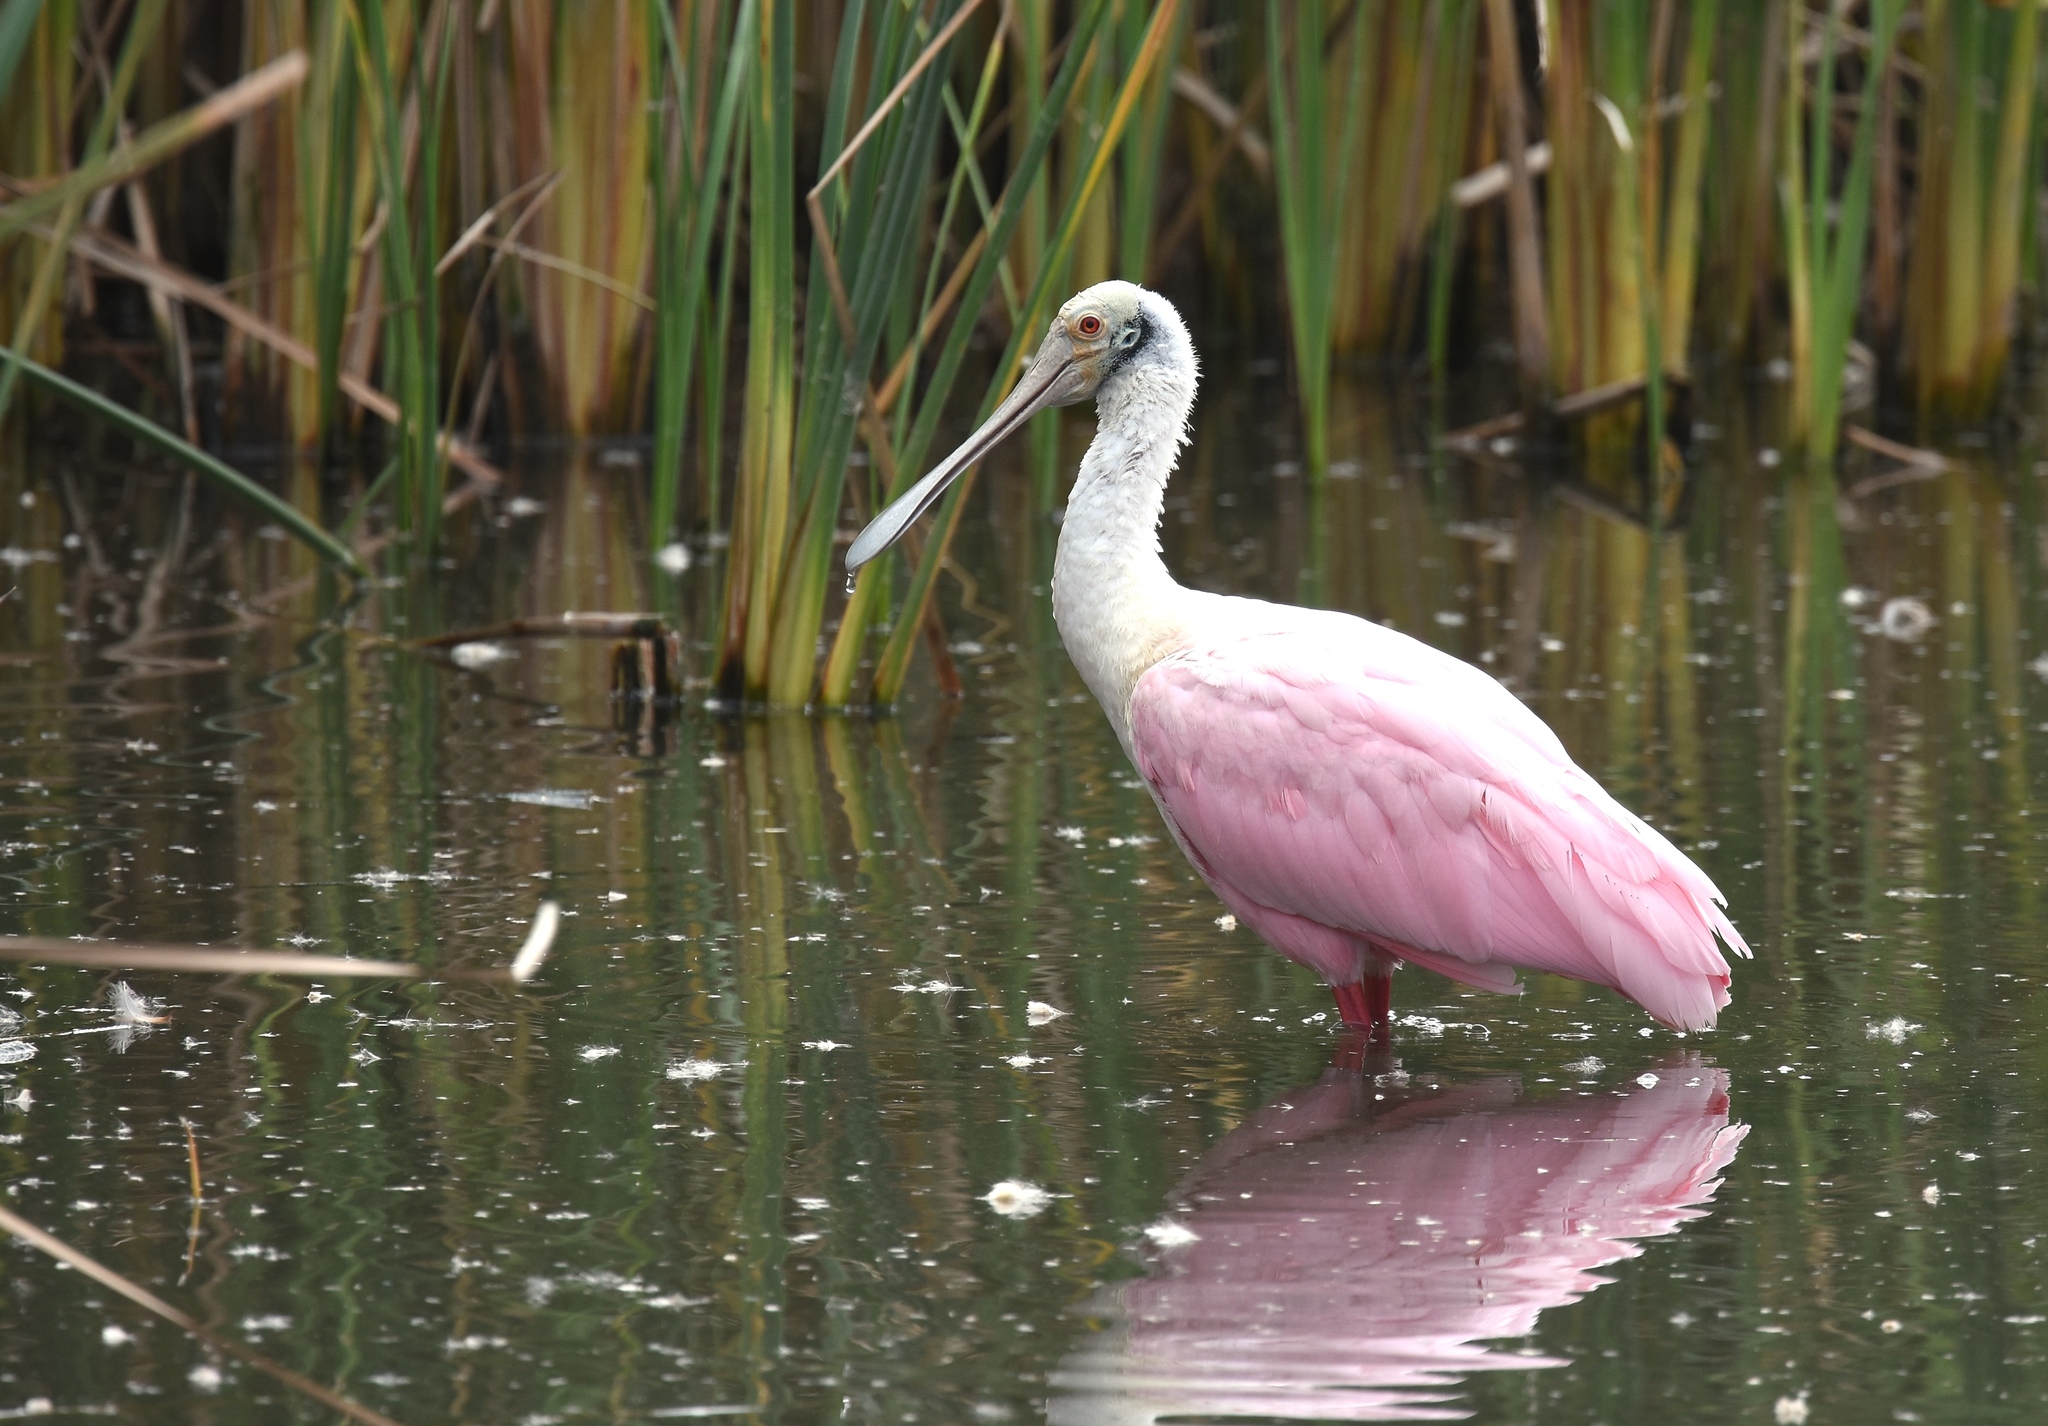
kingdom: Animalia
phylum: Chordata
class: Aves
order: Pelecaniformes
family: Threskiornithidae
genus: Platalea
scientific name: Platalea ajaja
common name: Roseate spoonbill
